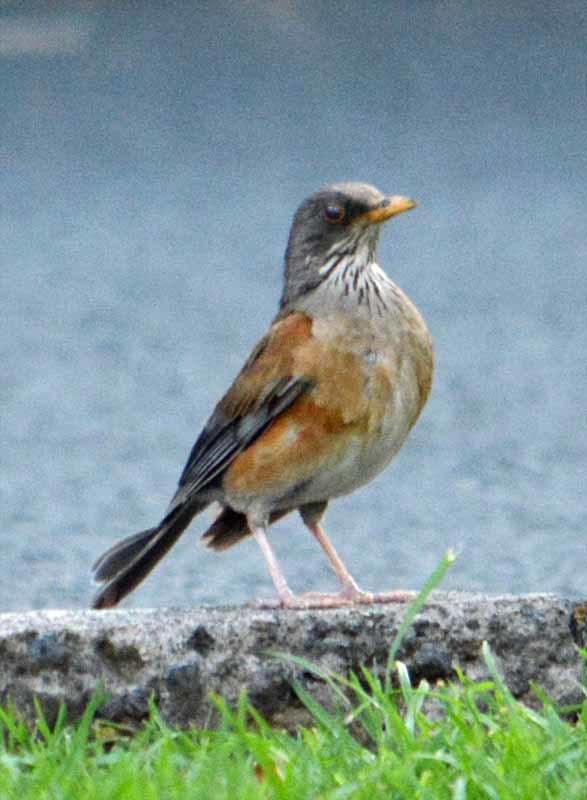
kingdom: Animalia
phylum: Chordata
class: Aves
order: Passeriformes
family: Turdidae
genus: Turdus
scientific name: Turdus rufopalliatus
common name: Rufous-backed robin
